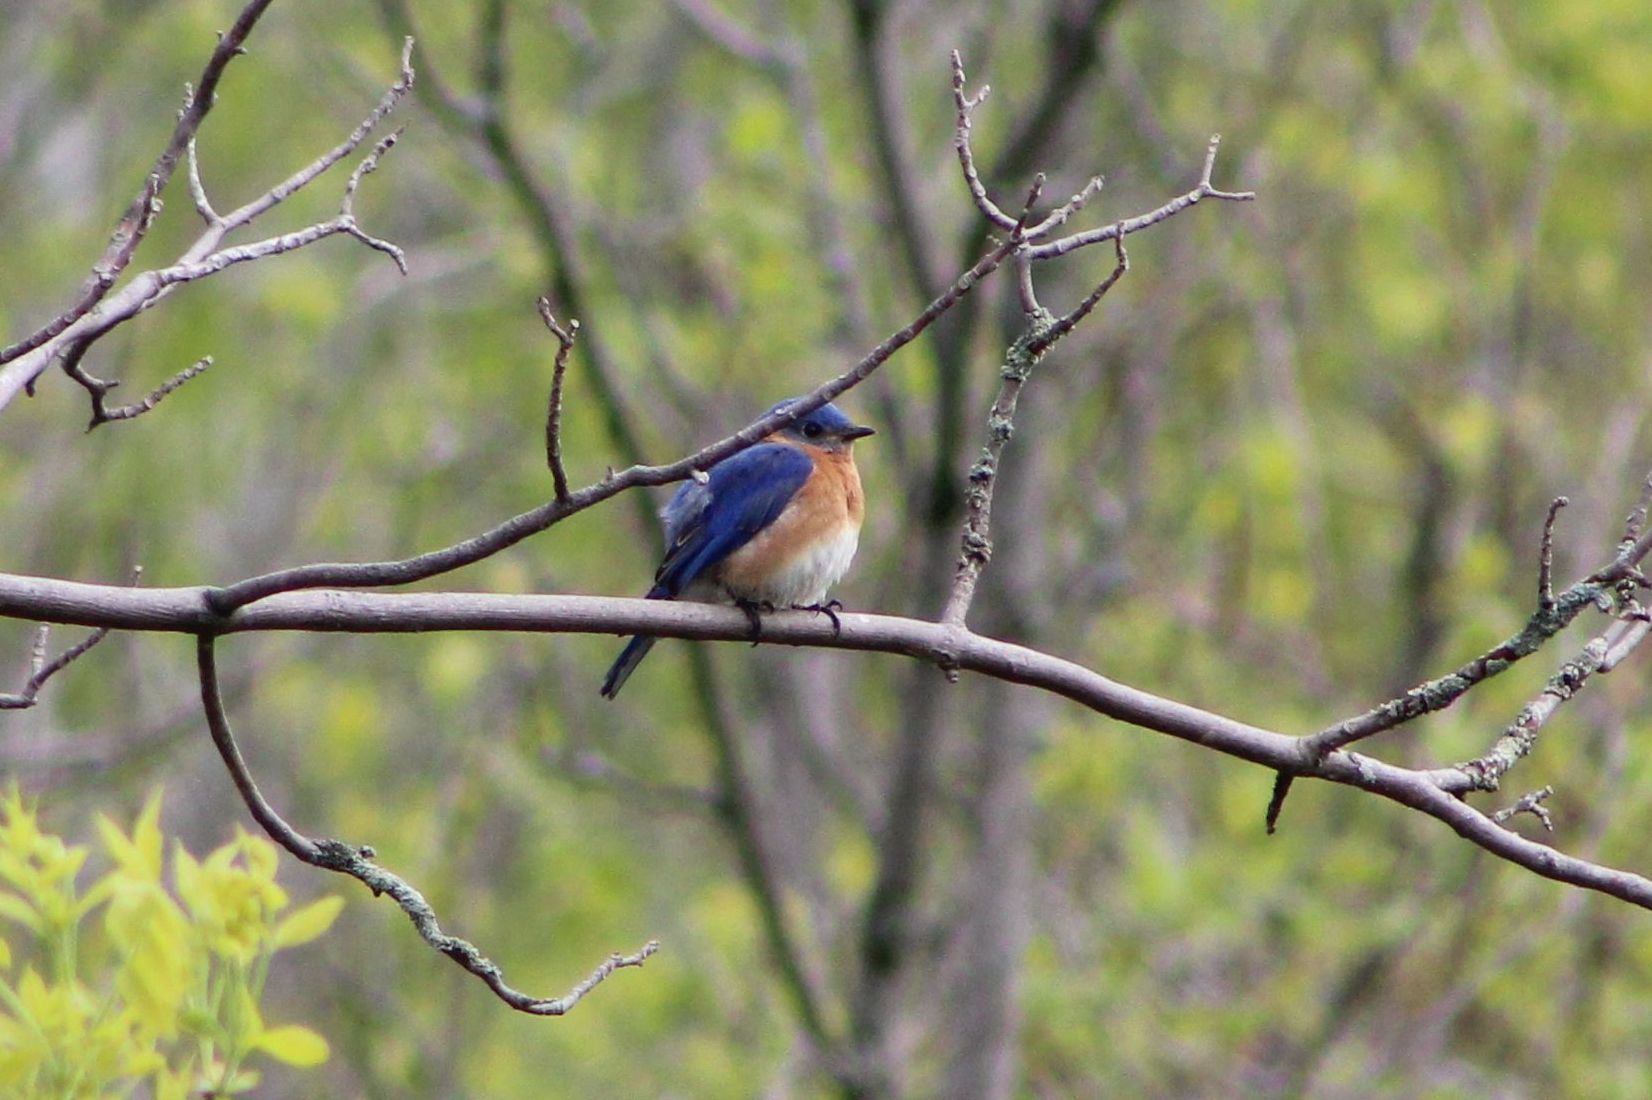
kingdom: Animalia
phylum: Chordata
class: Aves
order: Passeriformes
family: Turdidae
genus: Sialia
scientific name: Sialia sialis
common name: Eastern bluebird
